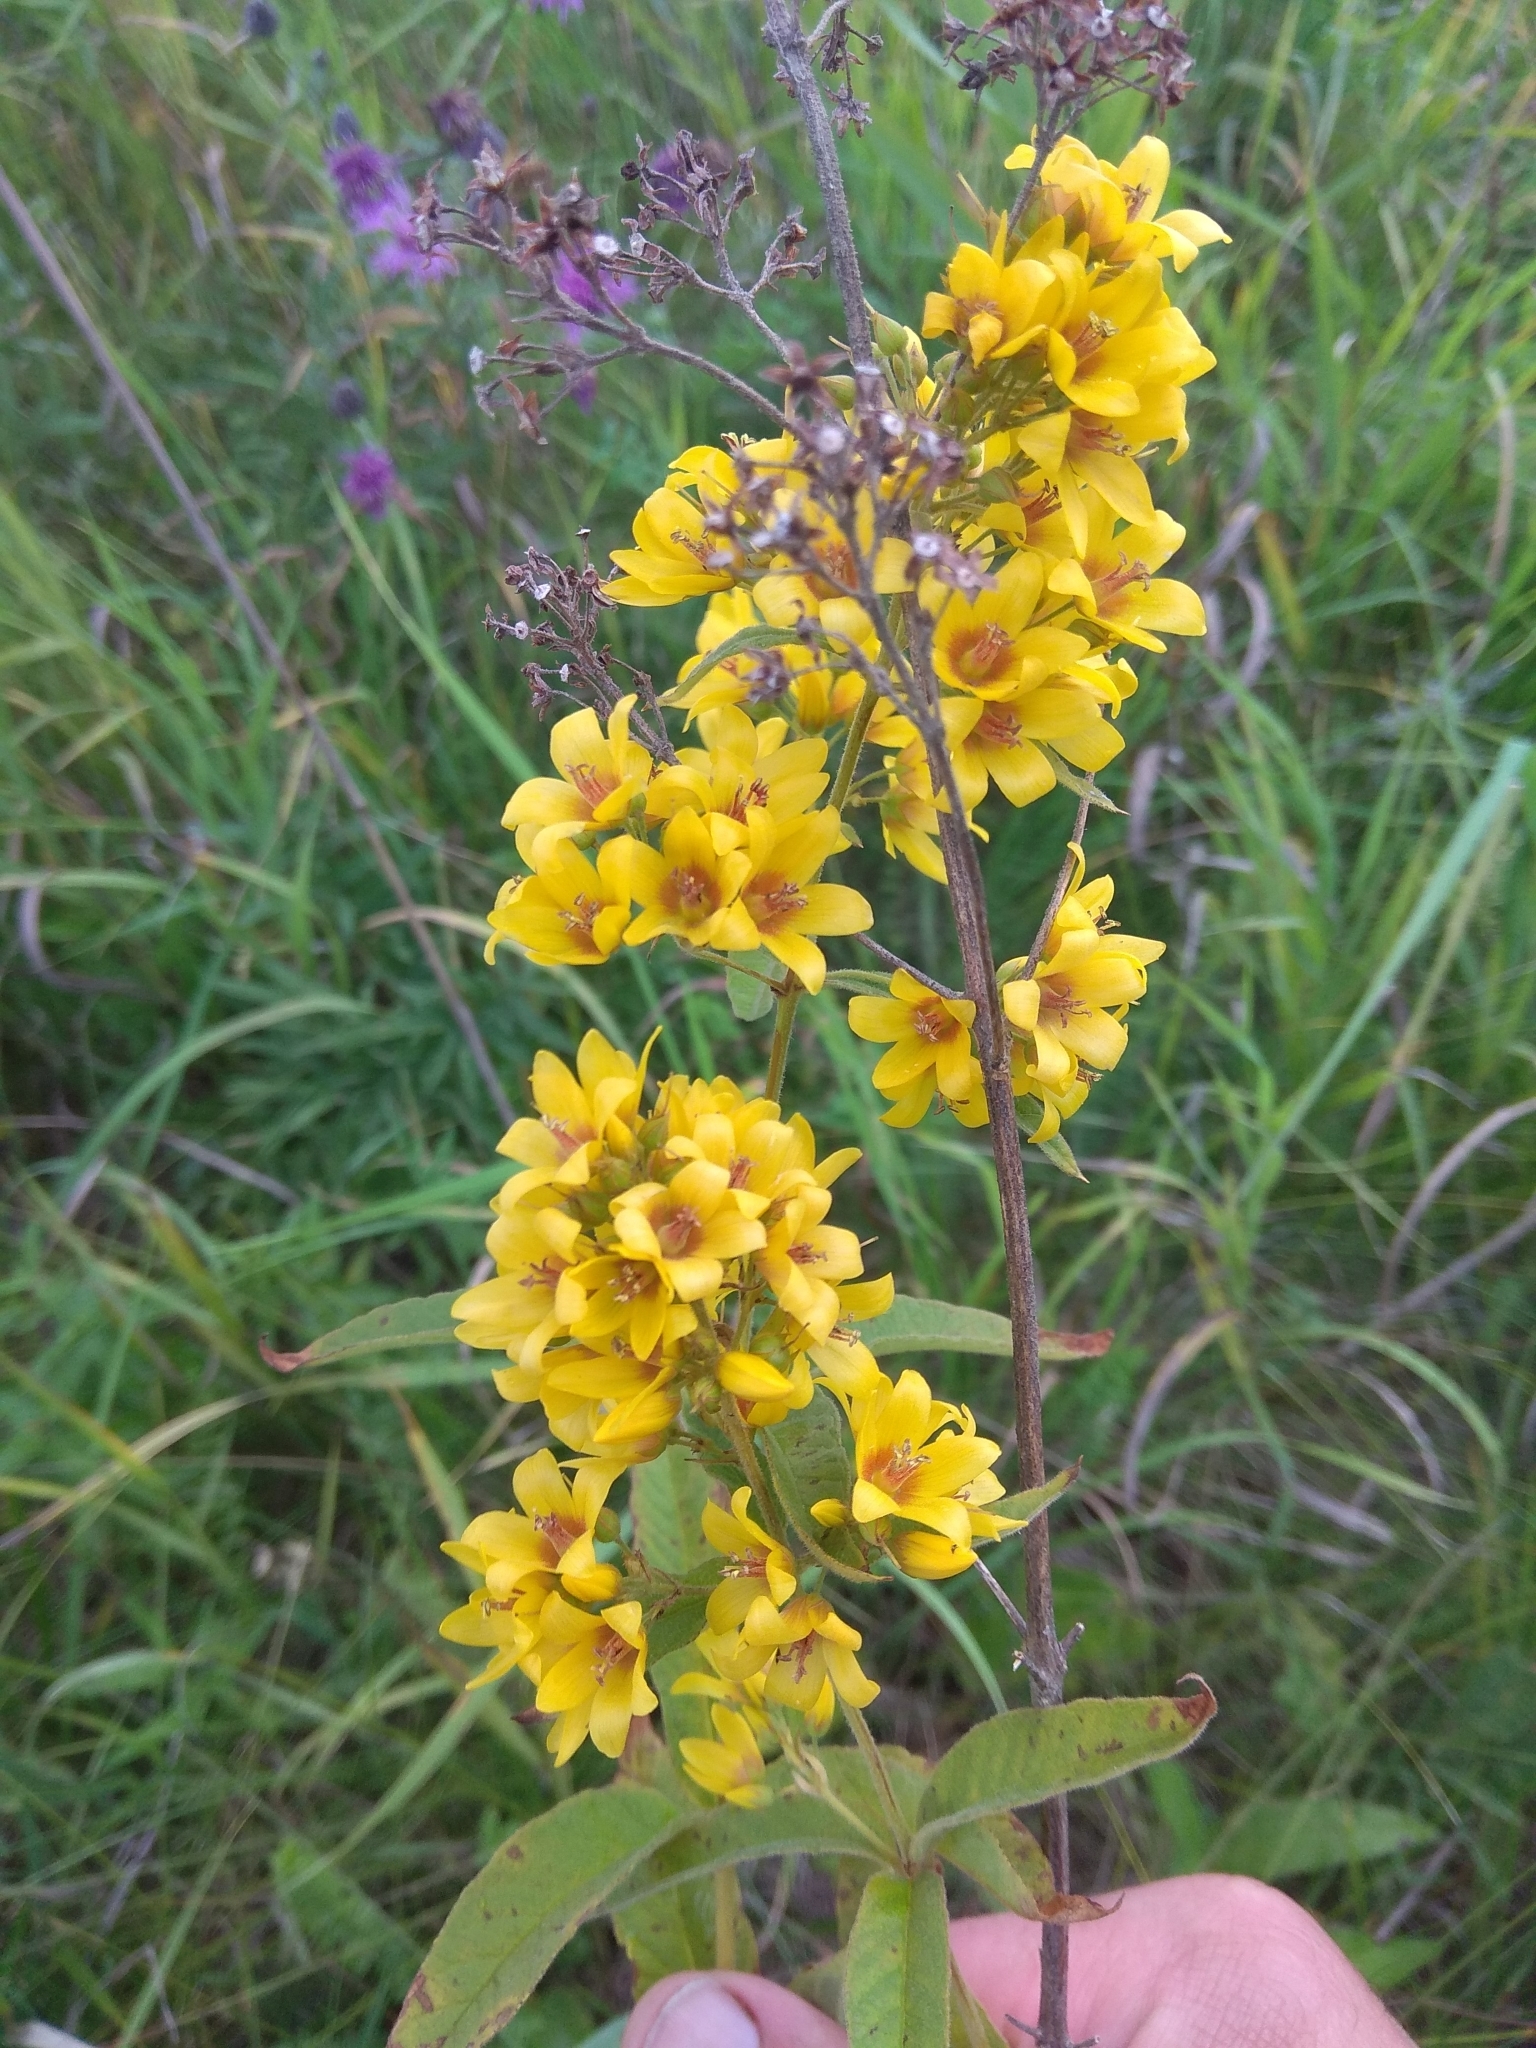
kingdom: Plantae
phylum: Tracheophyta
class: Magnoliopsida
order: Ericales
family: Primulaceae
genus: Lysimachia
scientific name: Lysimachia vulgaris
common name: Yellow loosestrife
